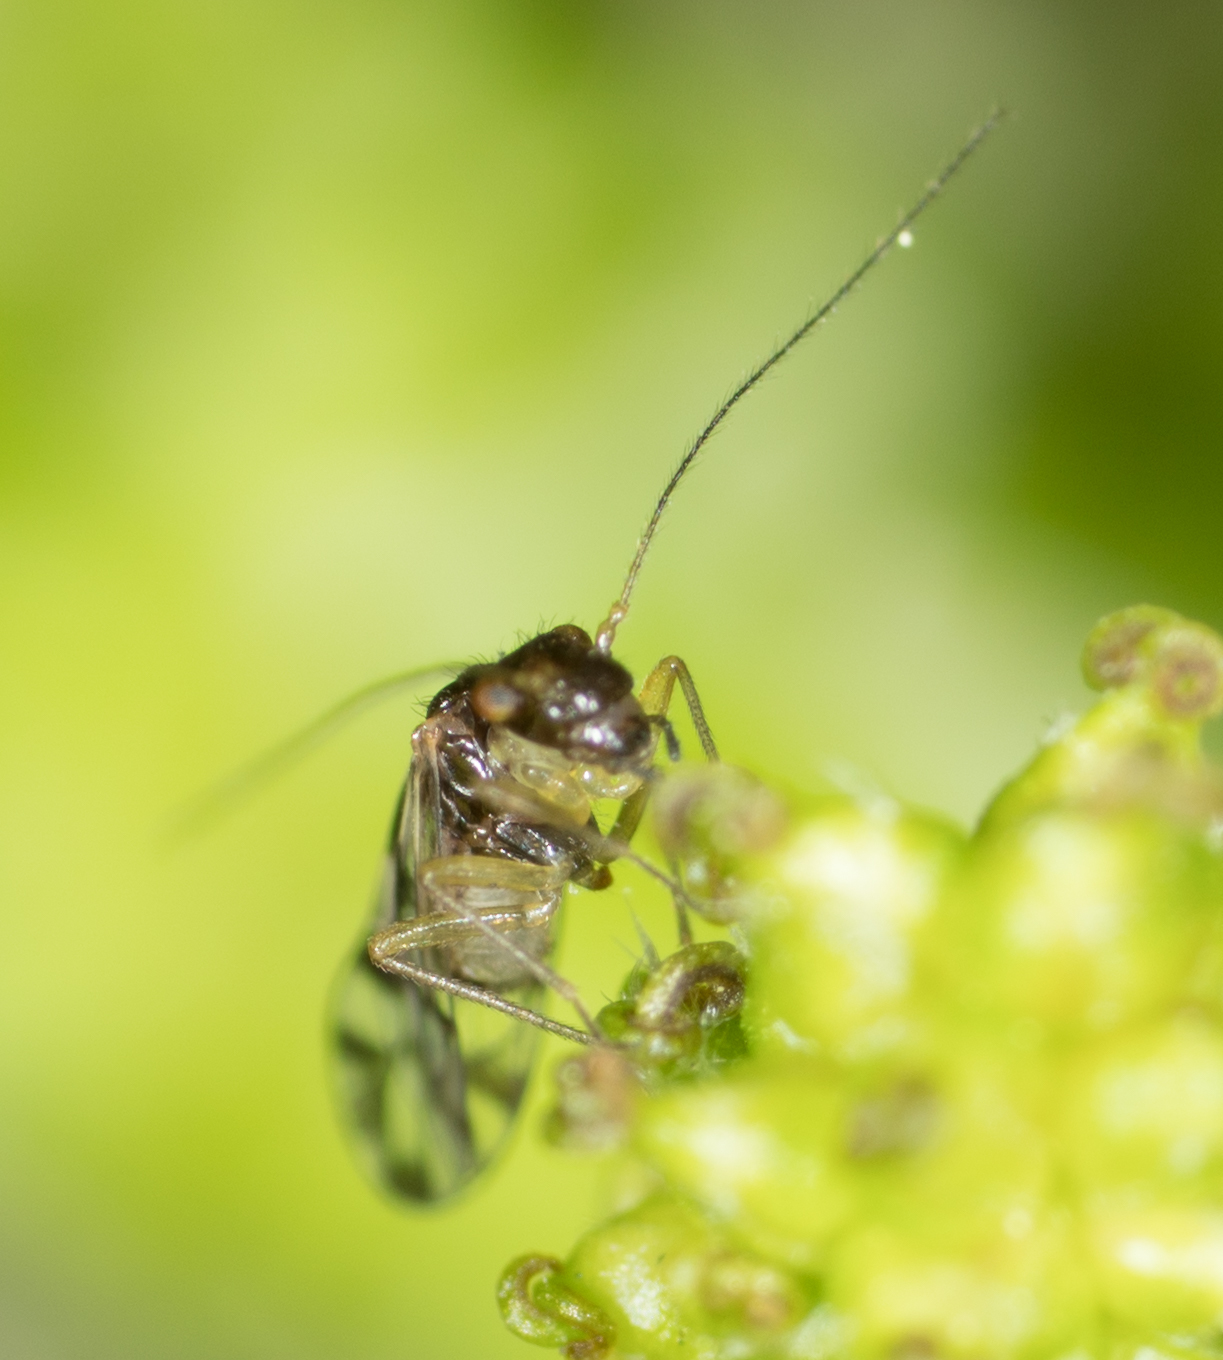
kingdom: Animalia
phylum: Arthropoda
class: Insecta
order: Psocodea
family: Elipsocidae
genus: Propsocus
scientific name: Propsocus pulchripennis
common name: Bark louse
